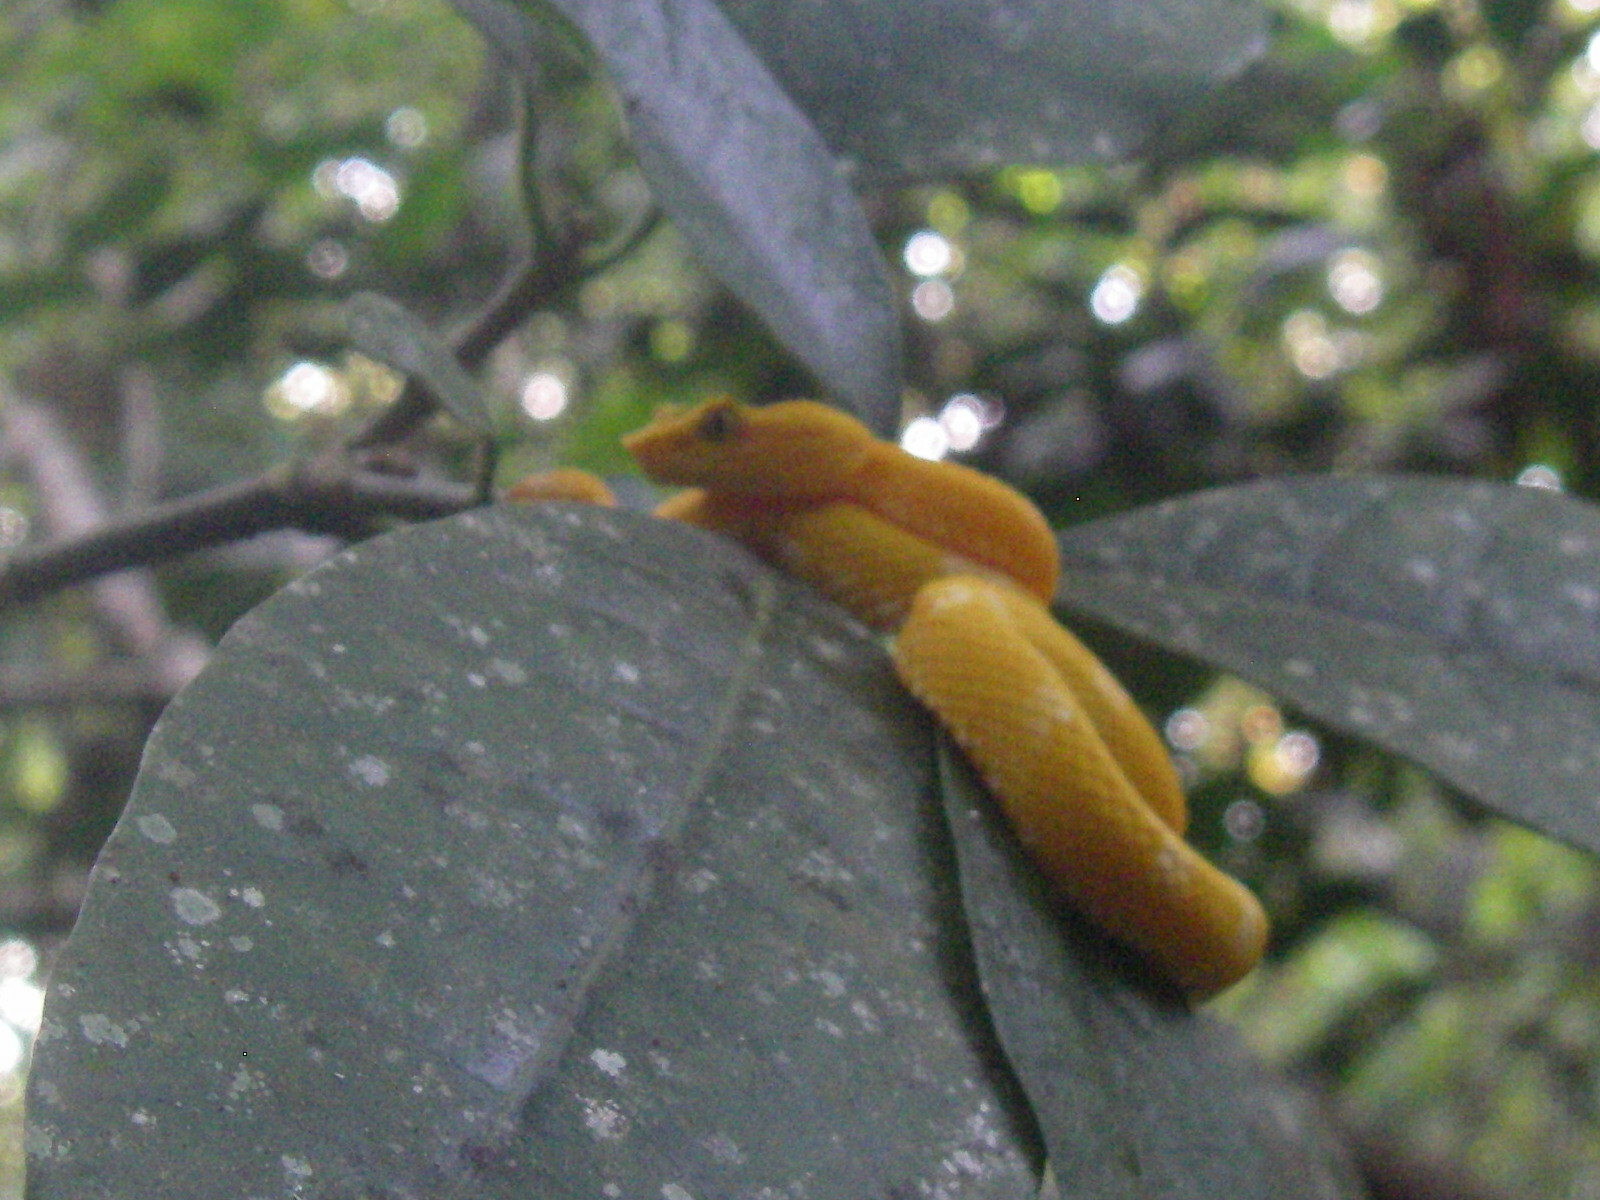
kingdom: Animalia
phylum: Chordata
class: Squamata
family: Viperidae
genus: Bothriechis
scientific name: Bothriechis schlegelii
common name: Eyelash viper
